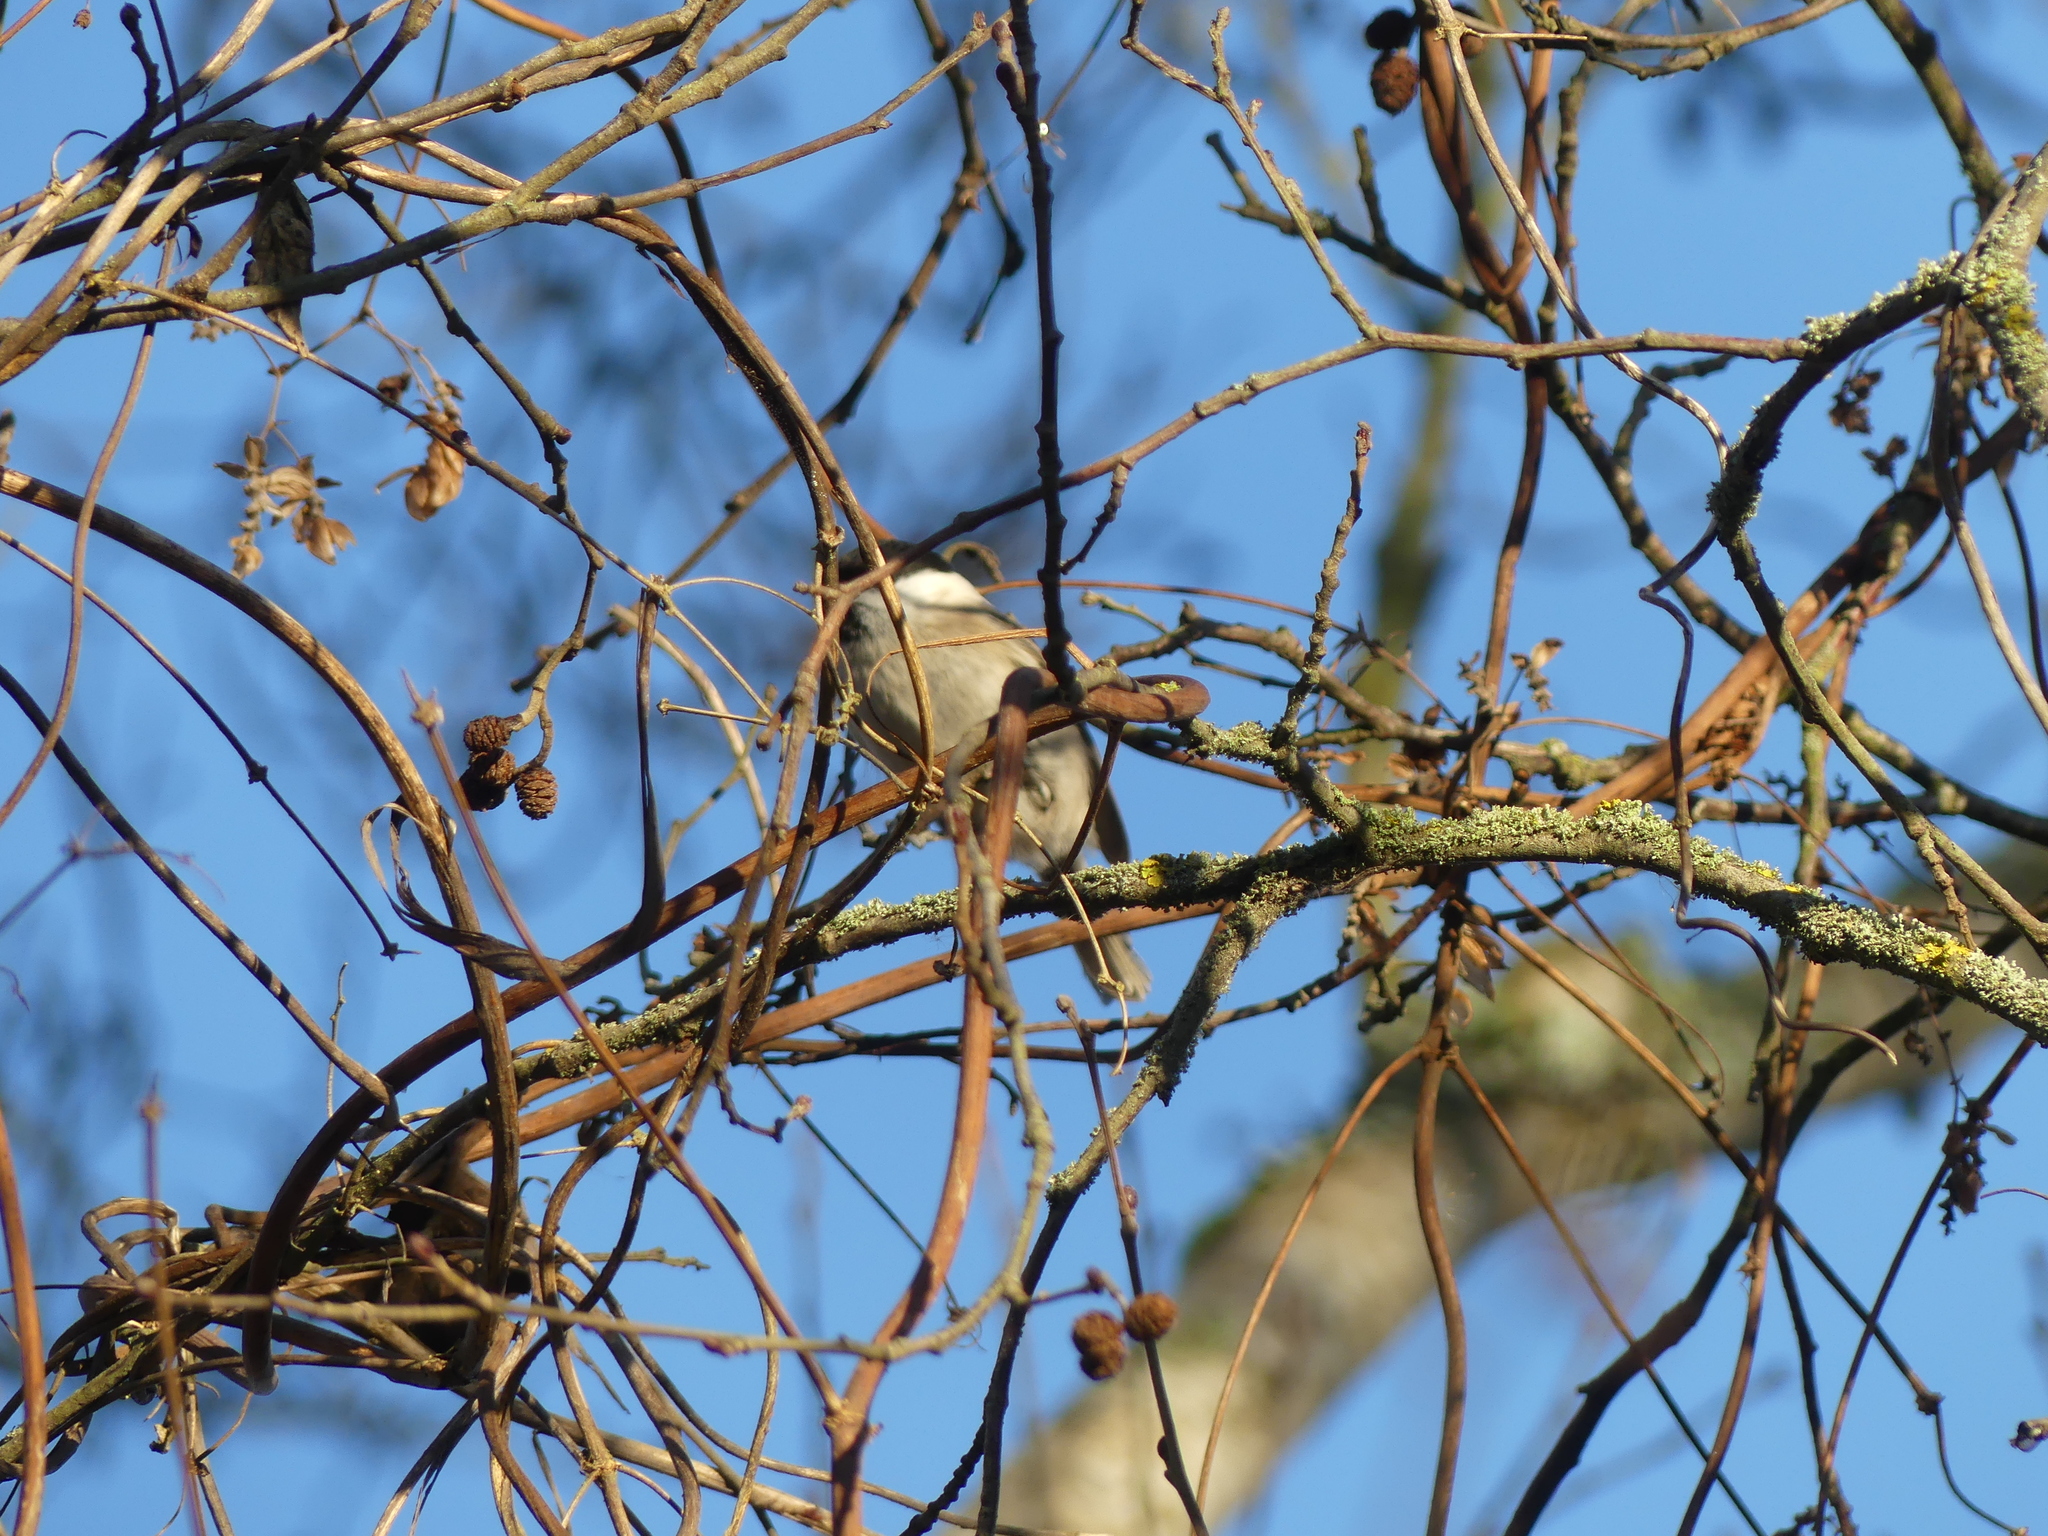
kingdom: Fungi
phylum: Ascomycota
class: Lecanoromycetes
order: Caliciales
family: Physciaceae
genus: Physcia
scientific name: Physcia
